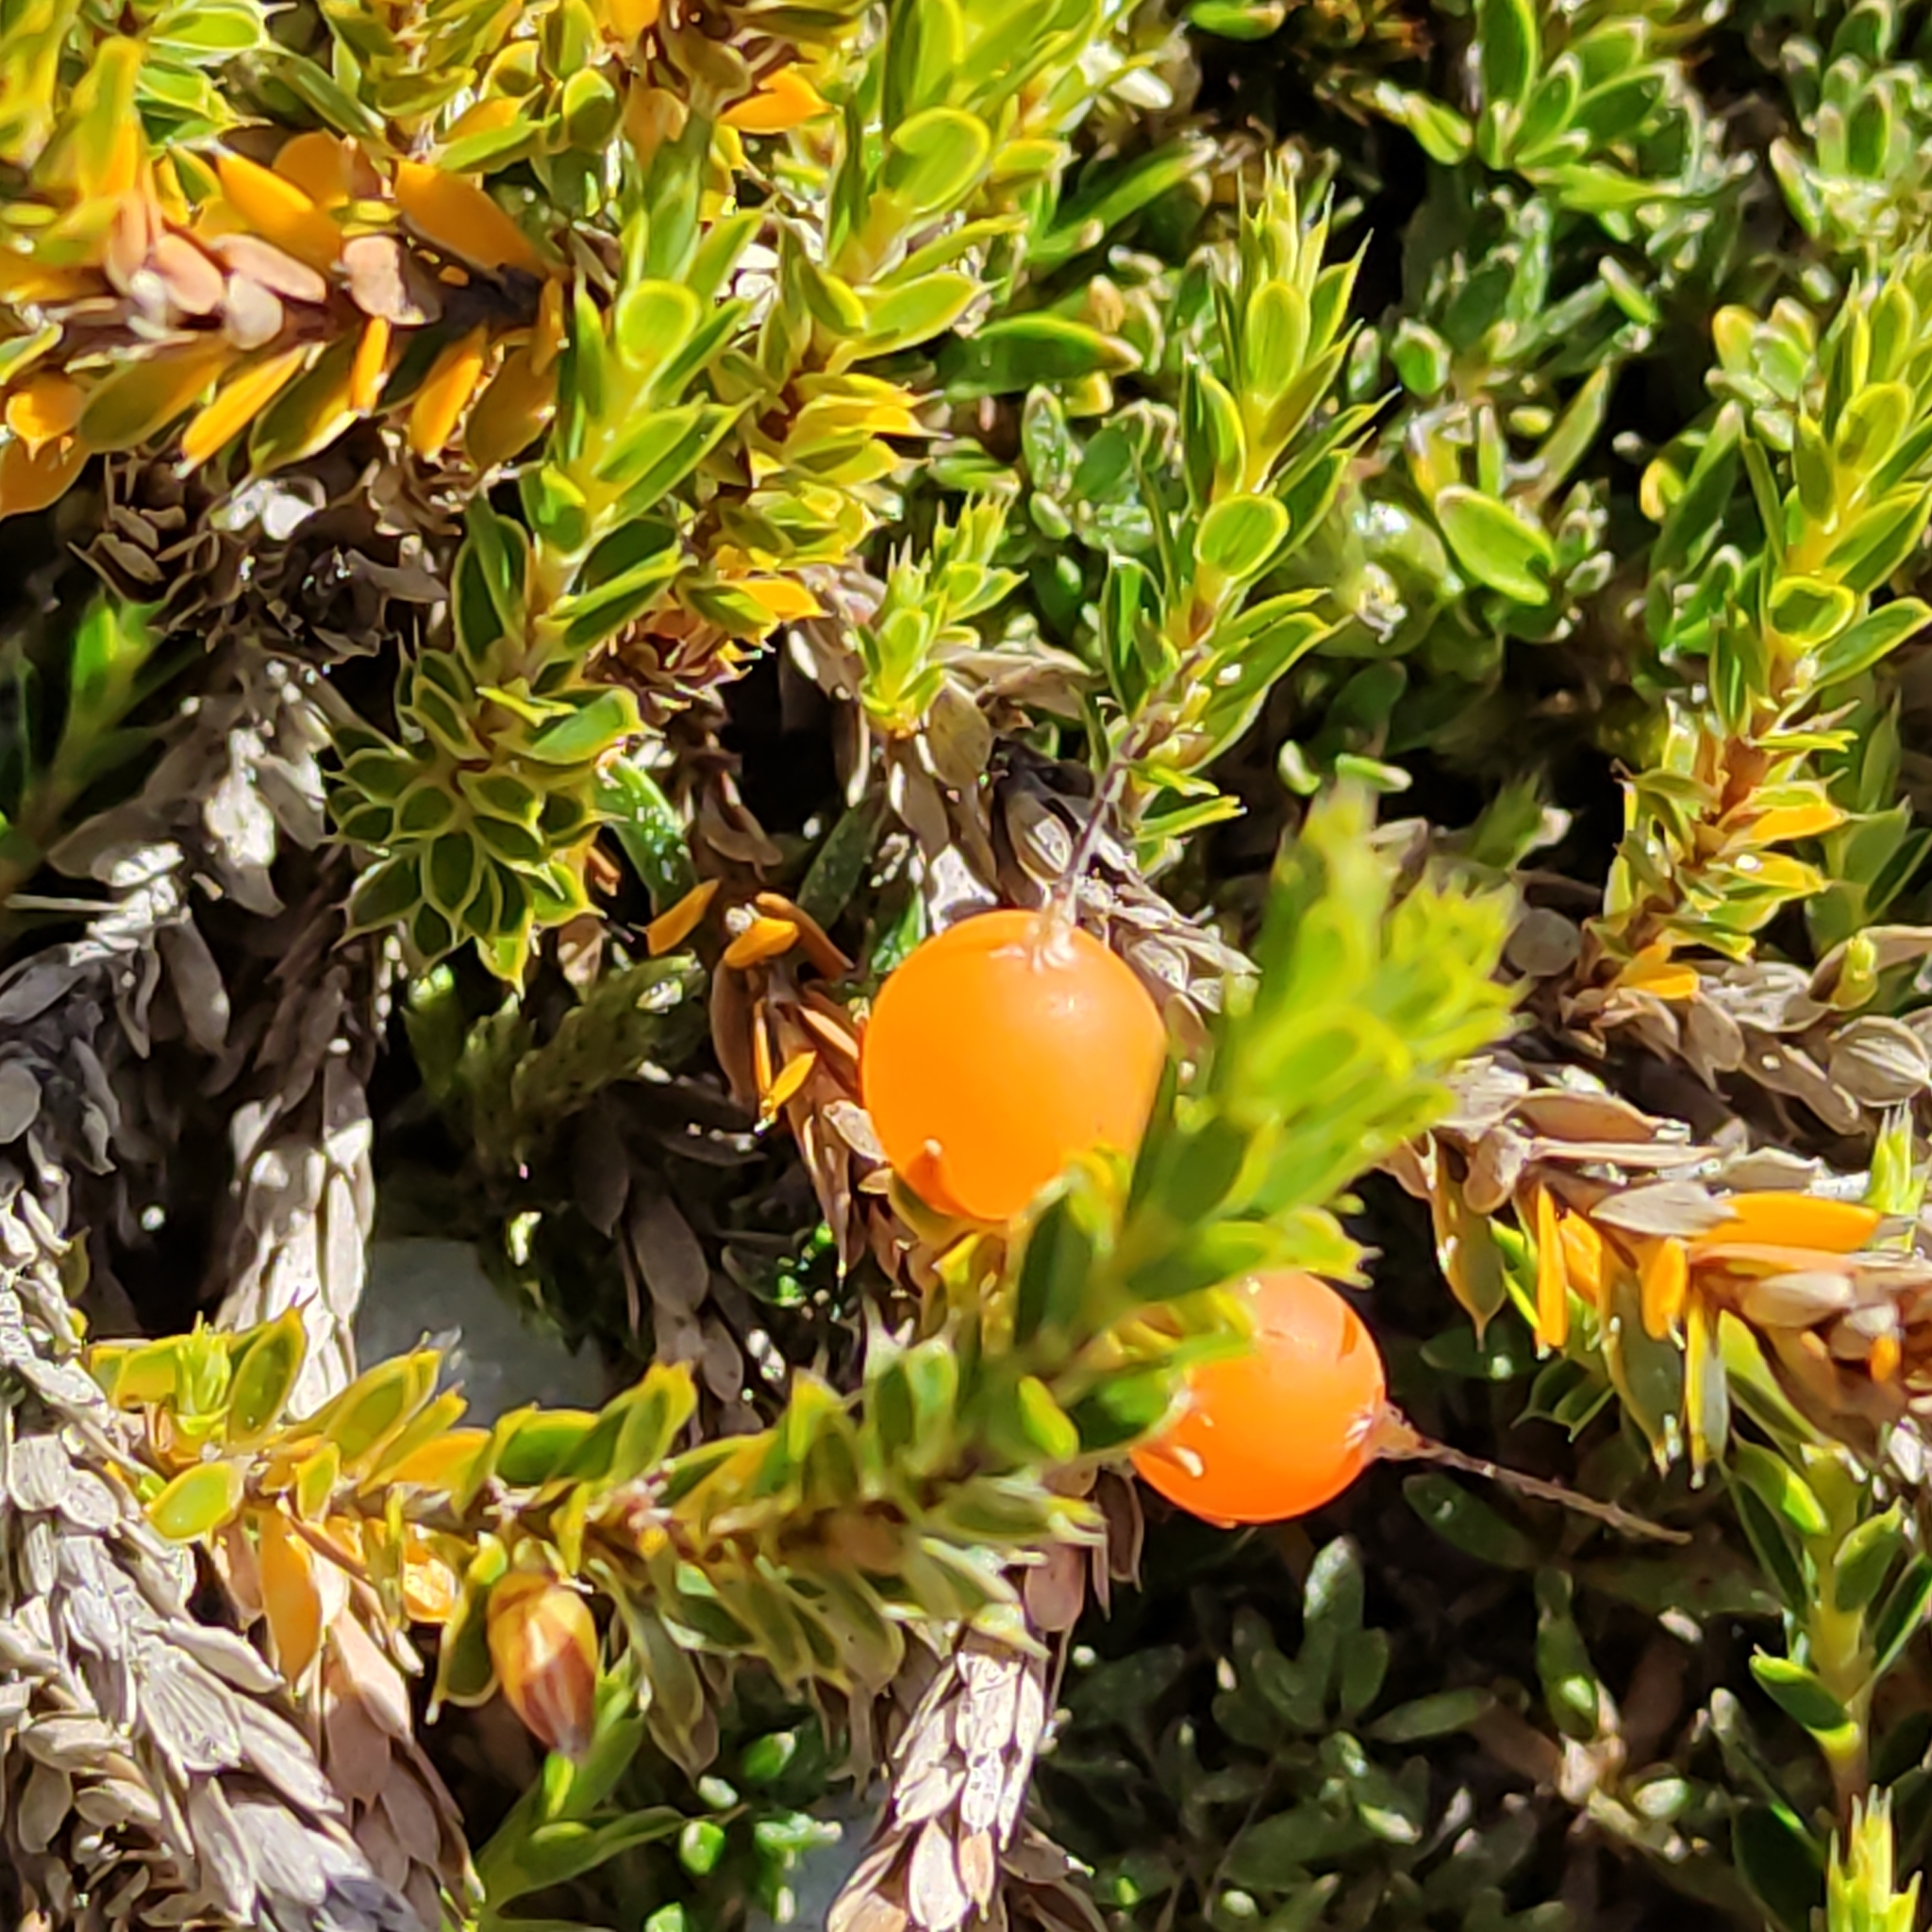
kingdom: Plantae
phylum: Tracheophyta
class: Magnoliopsida
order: Ericales
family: Ericaceae
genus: Styphelia
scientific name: Styphelia nesophila
